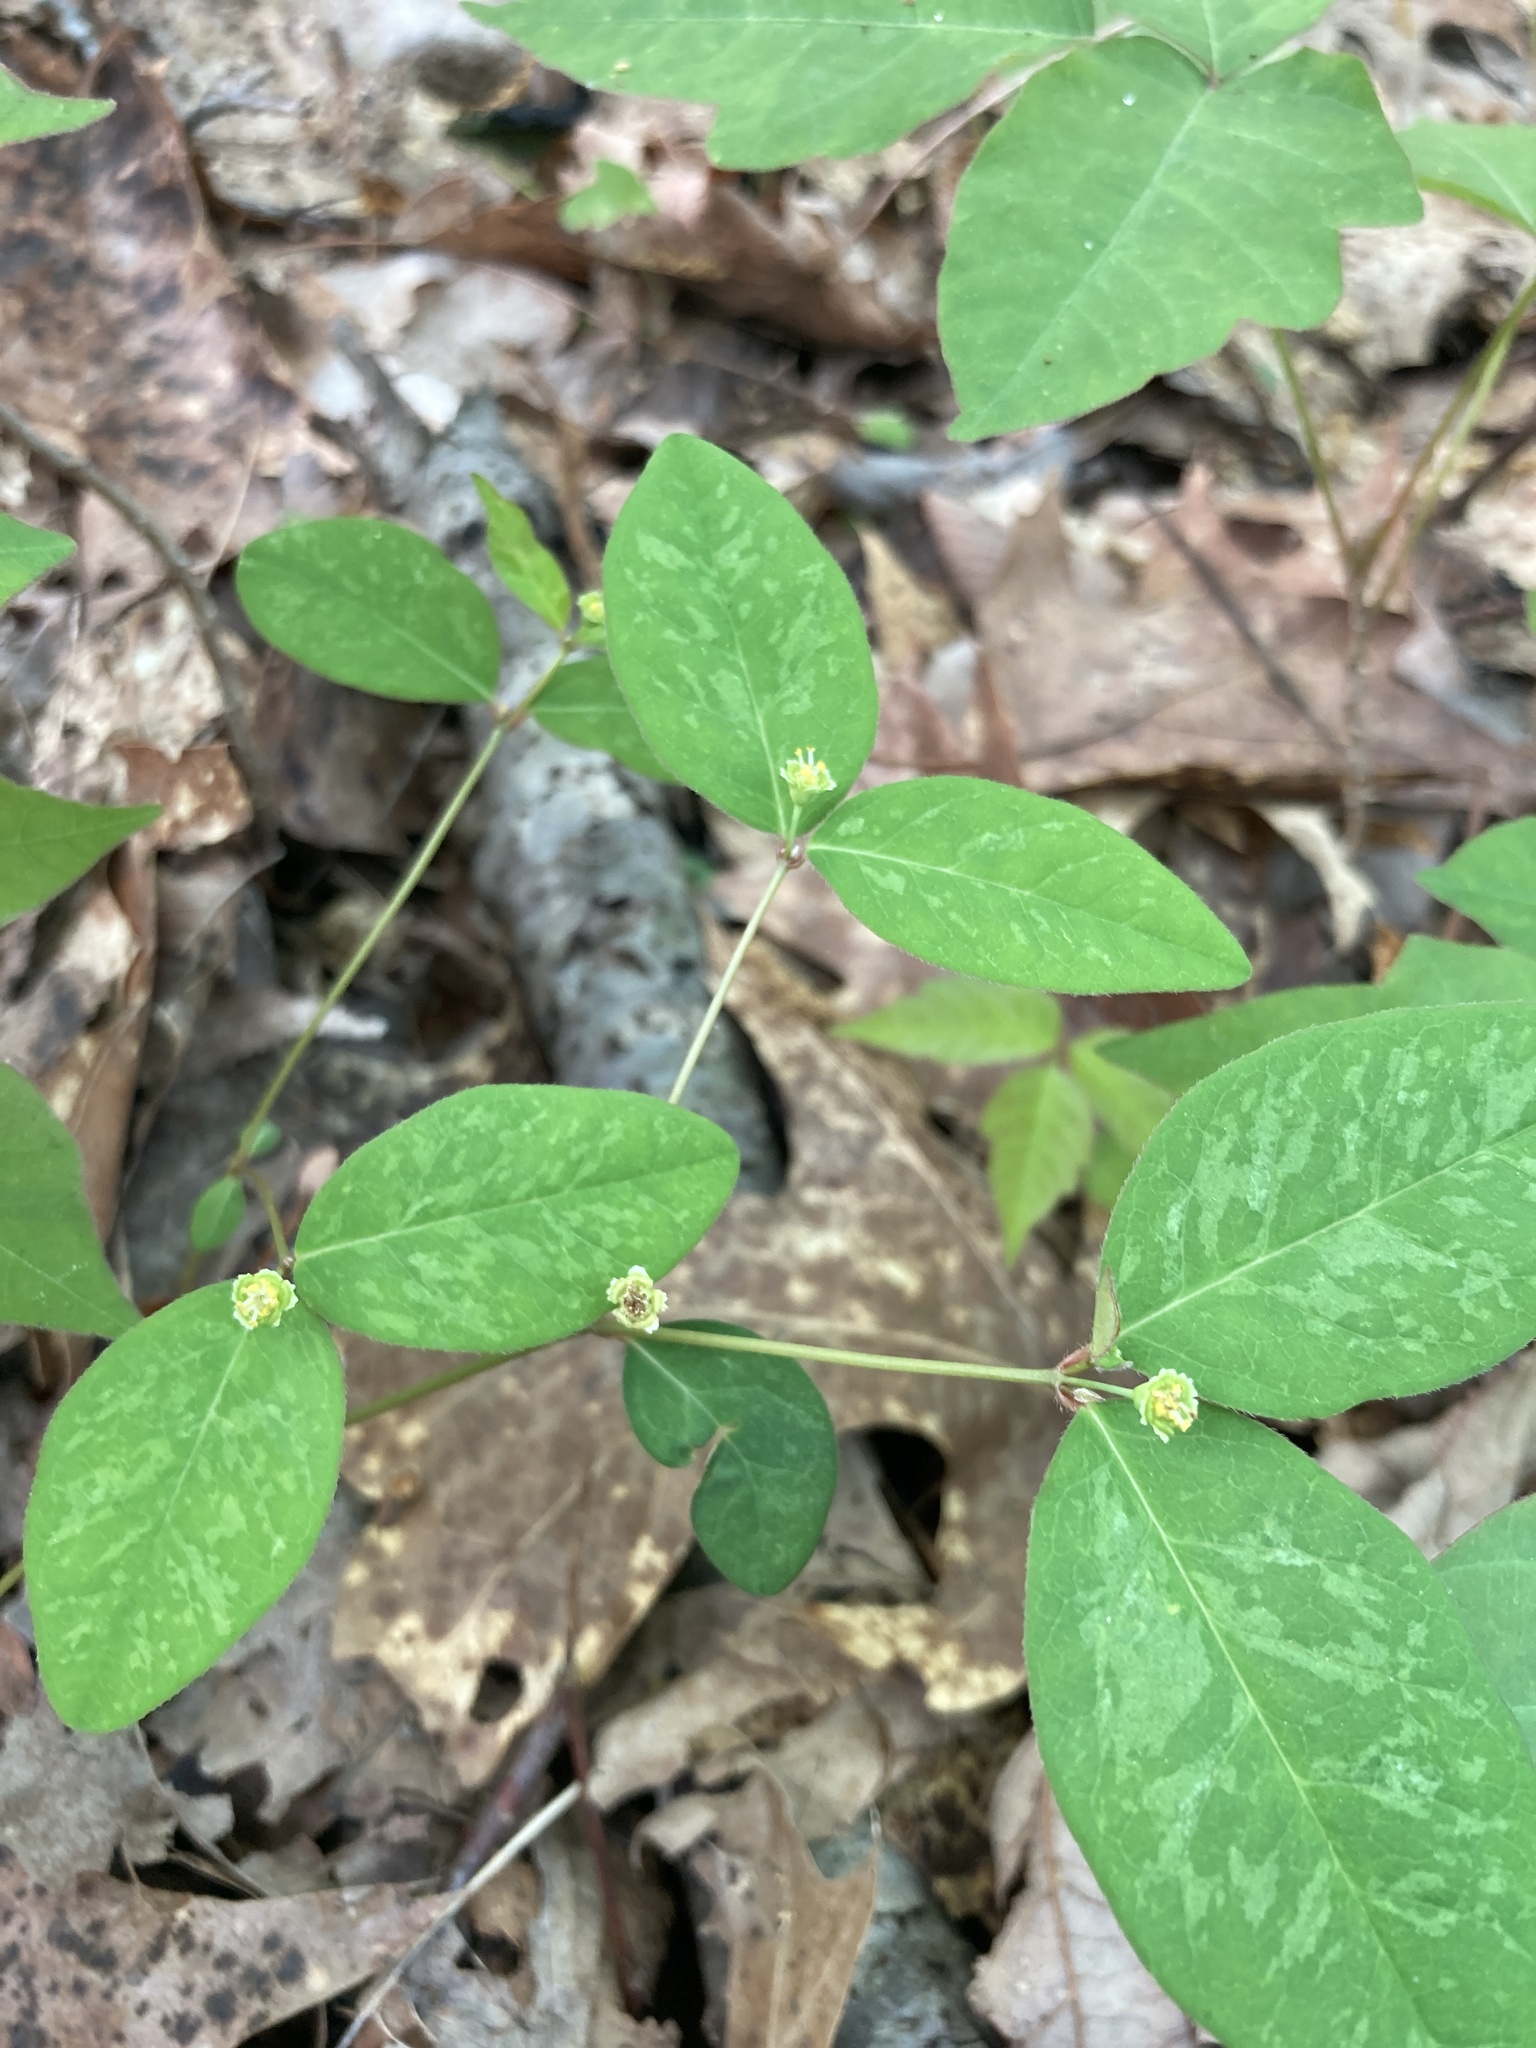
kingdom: Plantae
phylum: Tracheophyta
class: Magnoliopsida
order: Malpighiales
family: Euphorbiaceae
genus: Euphorbia
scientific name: Euphorbia mercurialina
